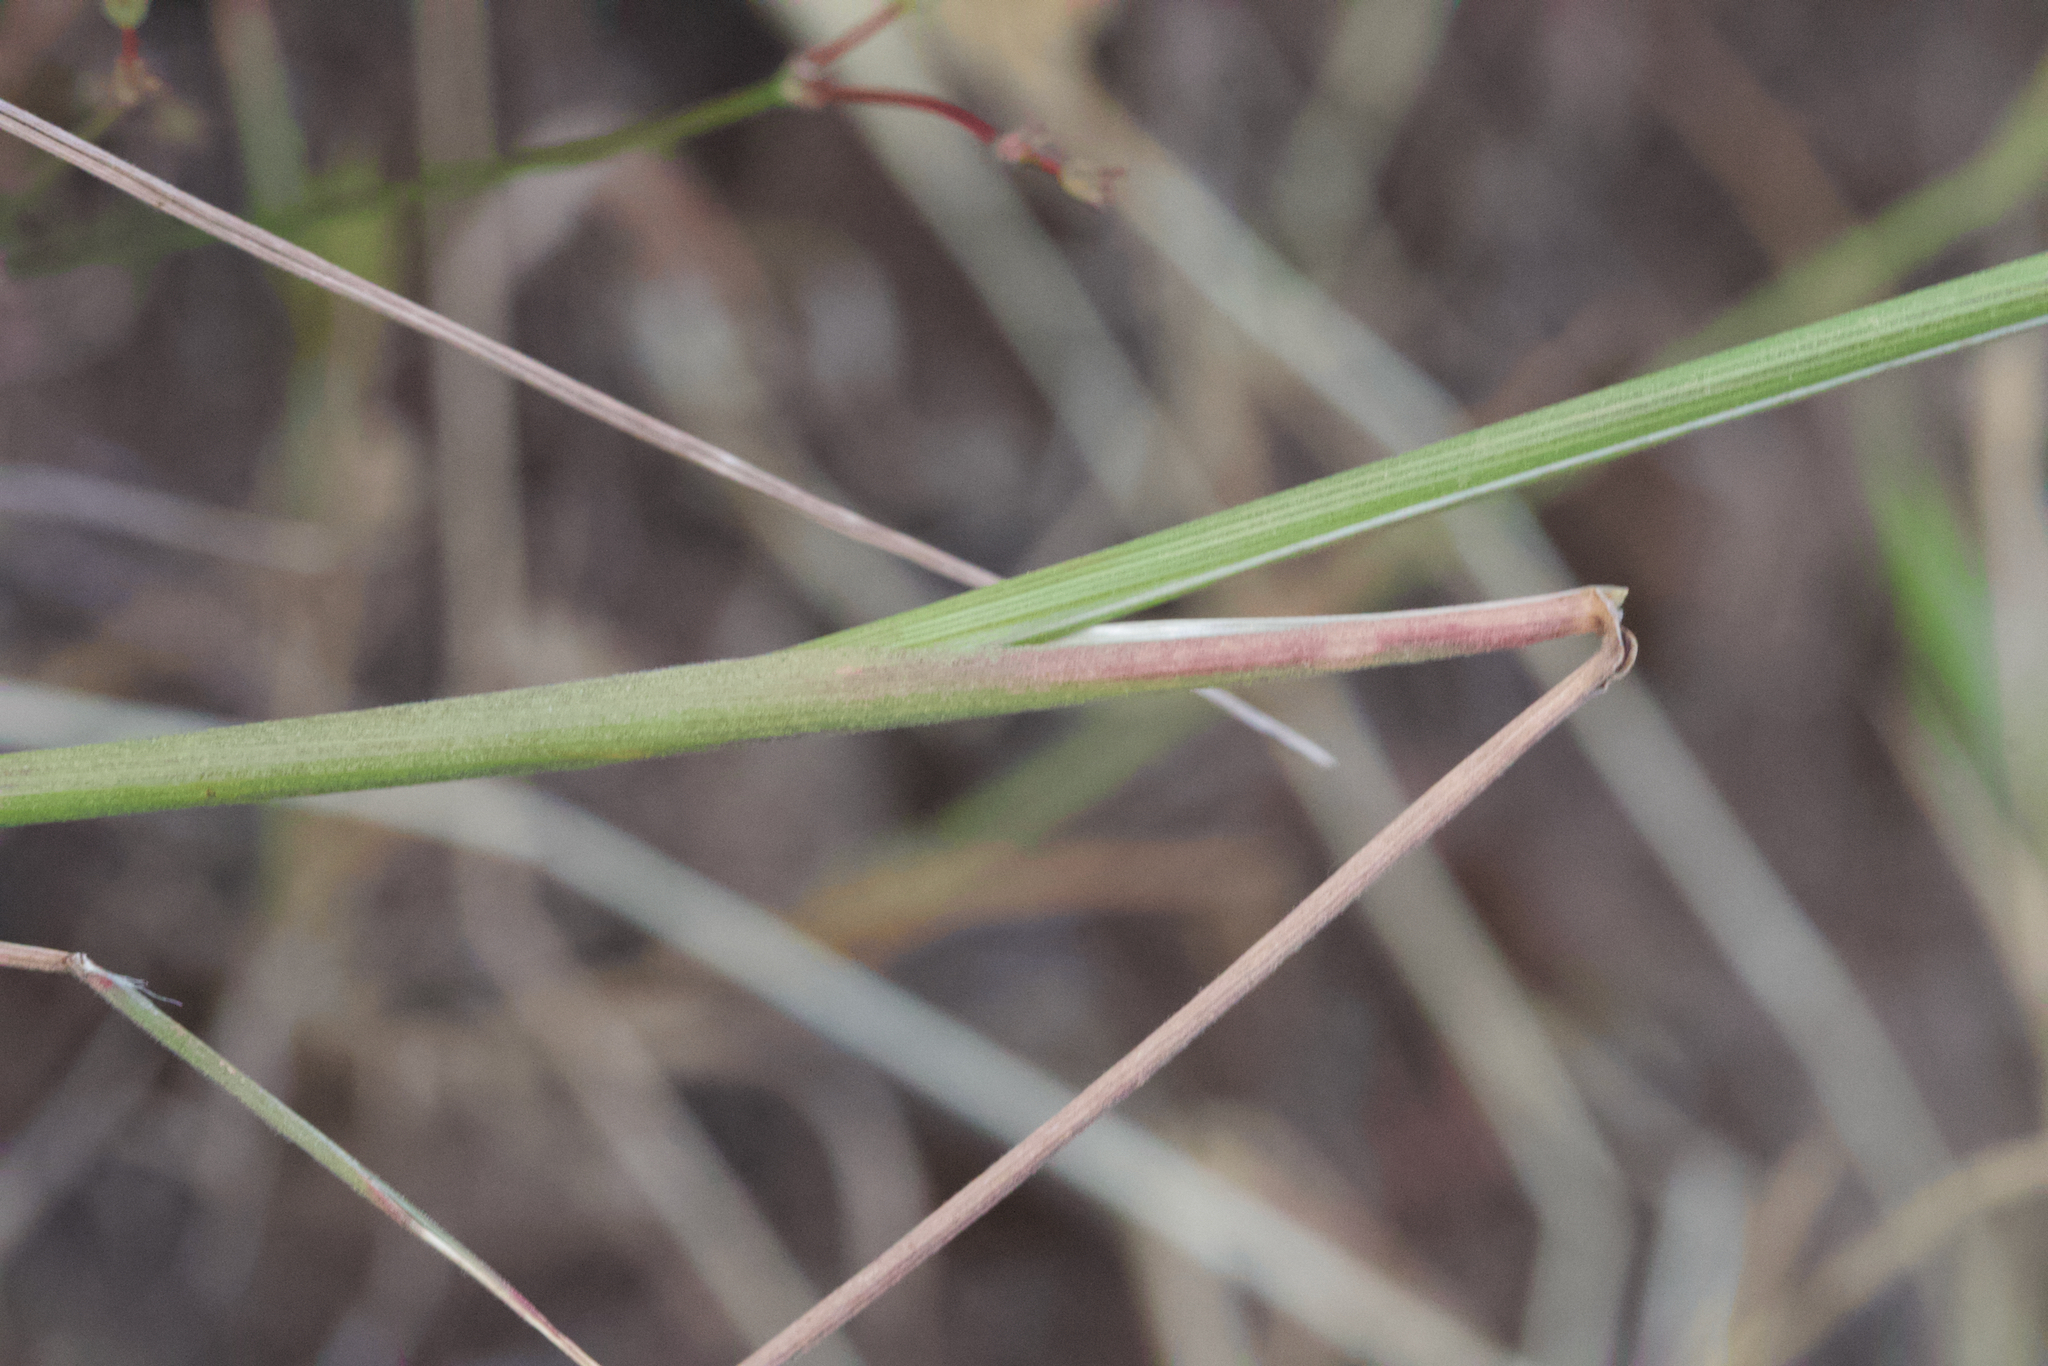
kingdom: Plantae
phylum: Tracheophyta
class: Liliopsida
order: Poales
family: Poaceae
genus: Elymus
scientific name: Elymus multisetus
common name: Big squirreltail
